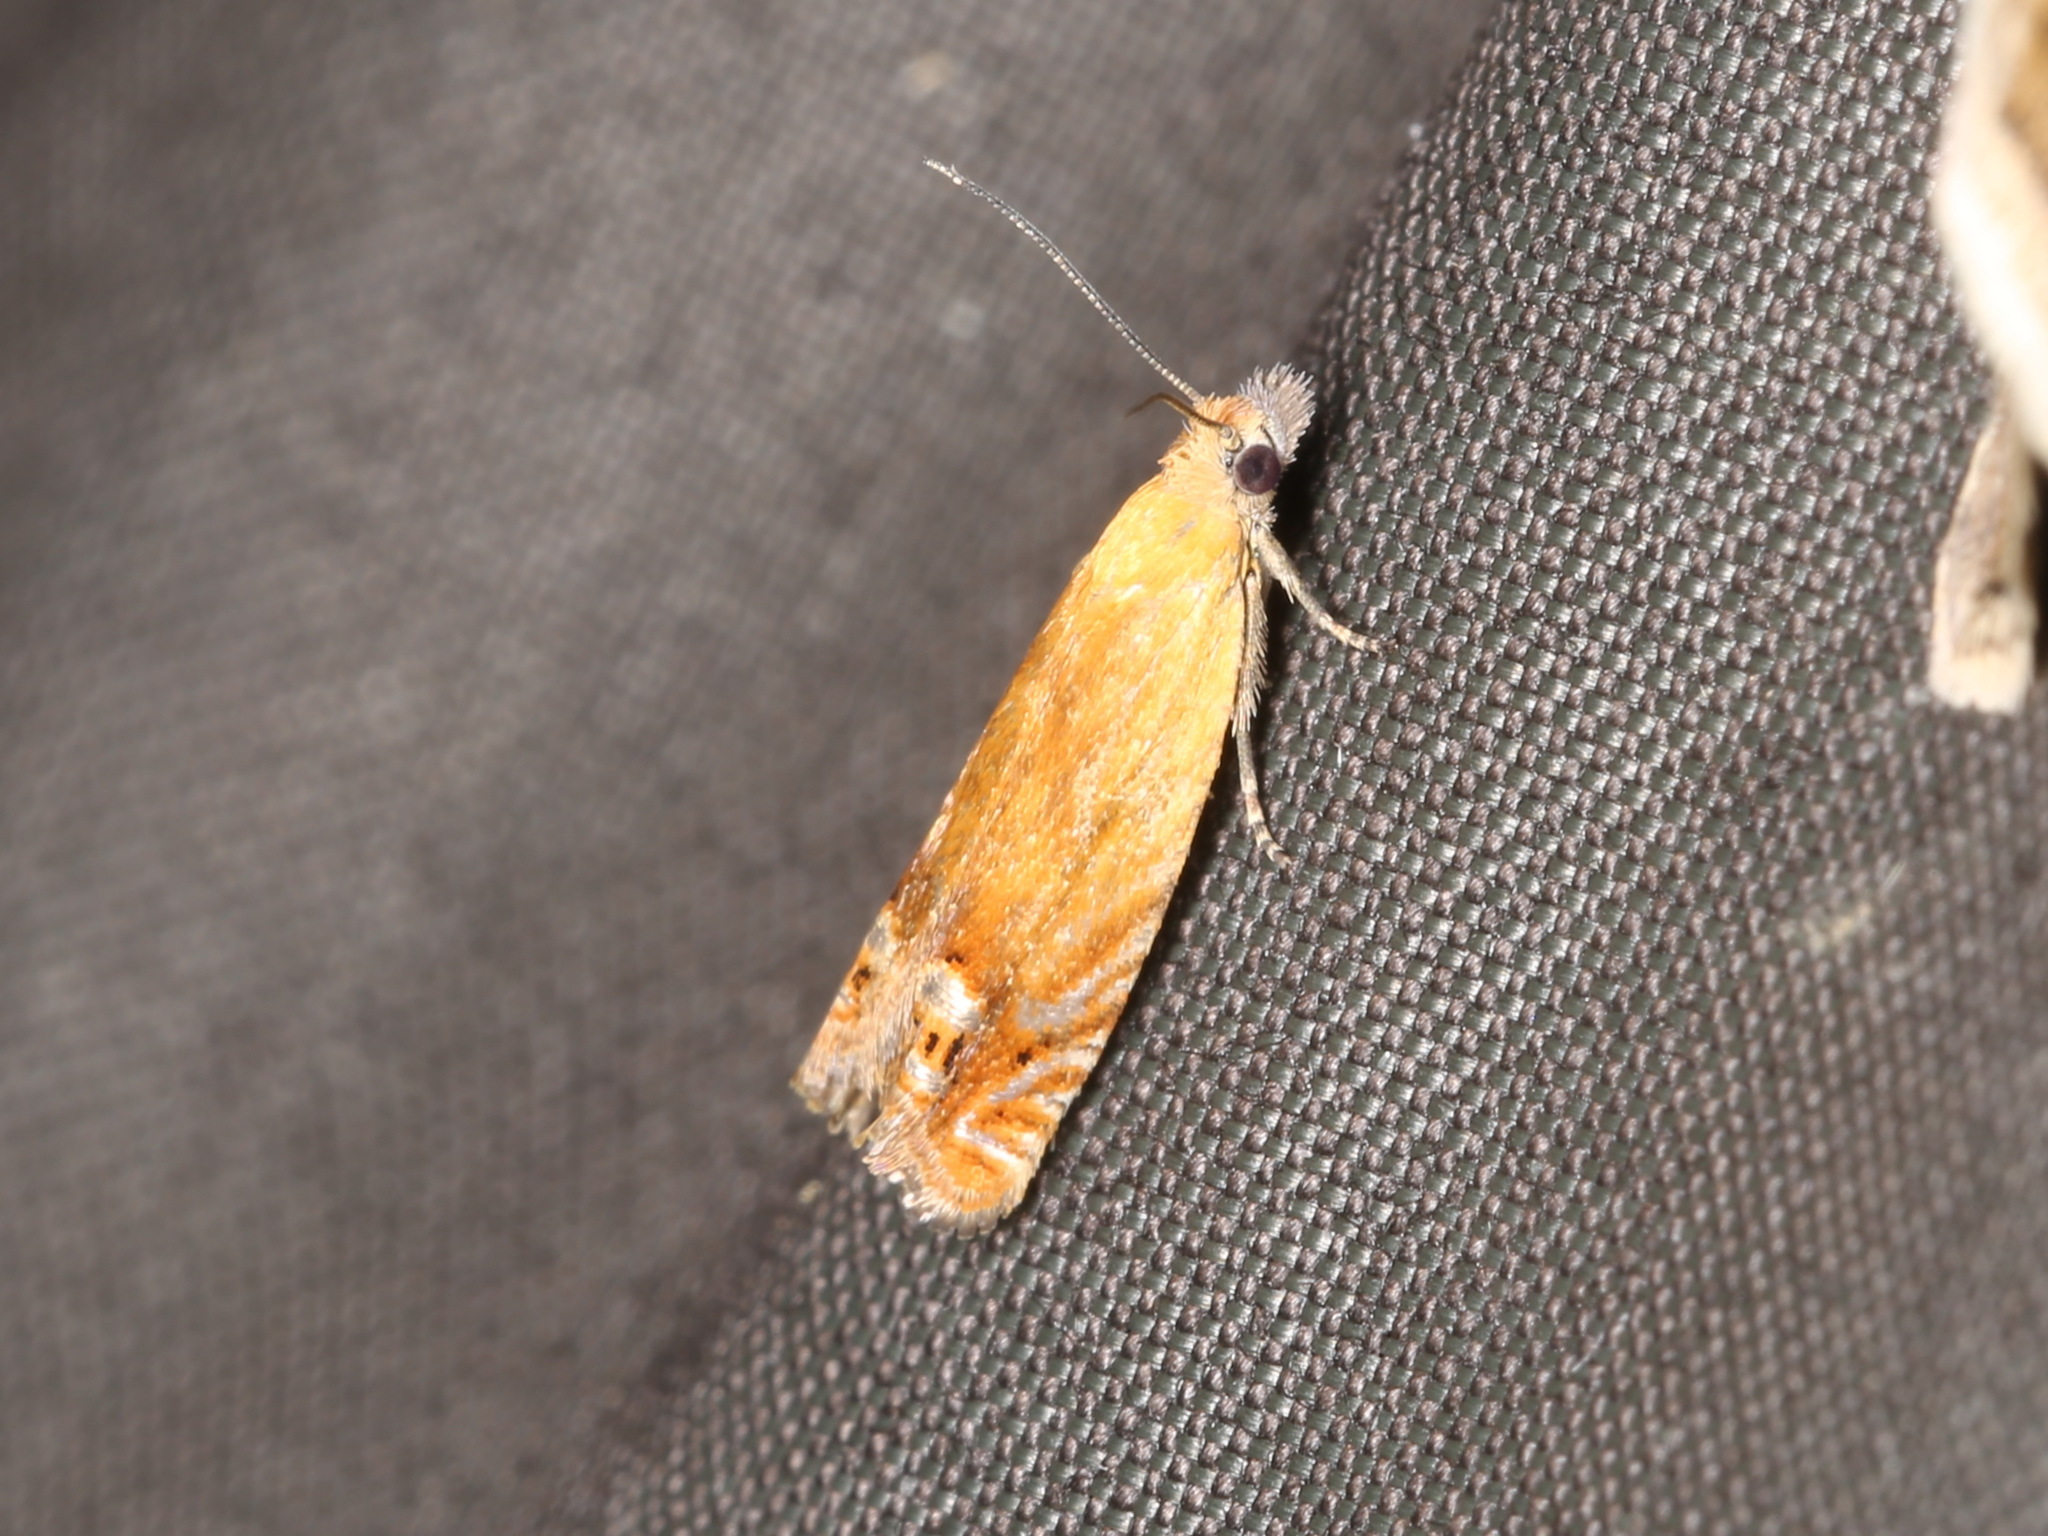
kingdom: Animalia
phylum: Arthropoda
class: Insecta
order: Lepidoptera
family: Tortricidae
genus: Lathronympha
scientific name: Lathronympha strigana
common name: Red piercer
